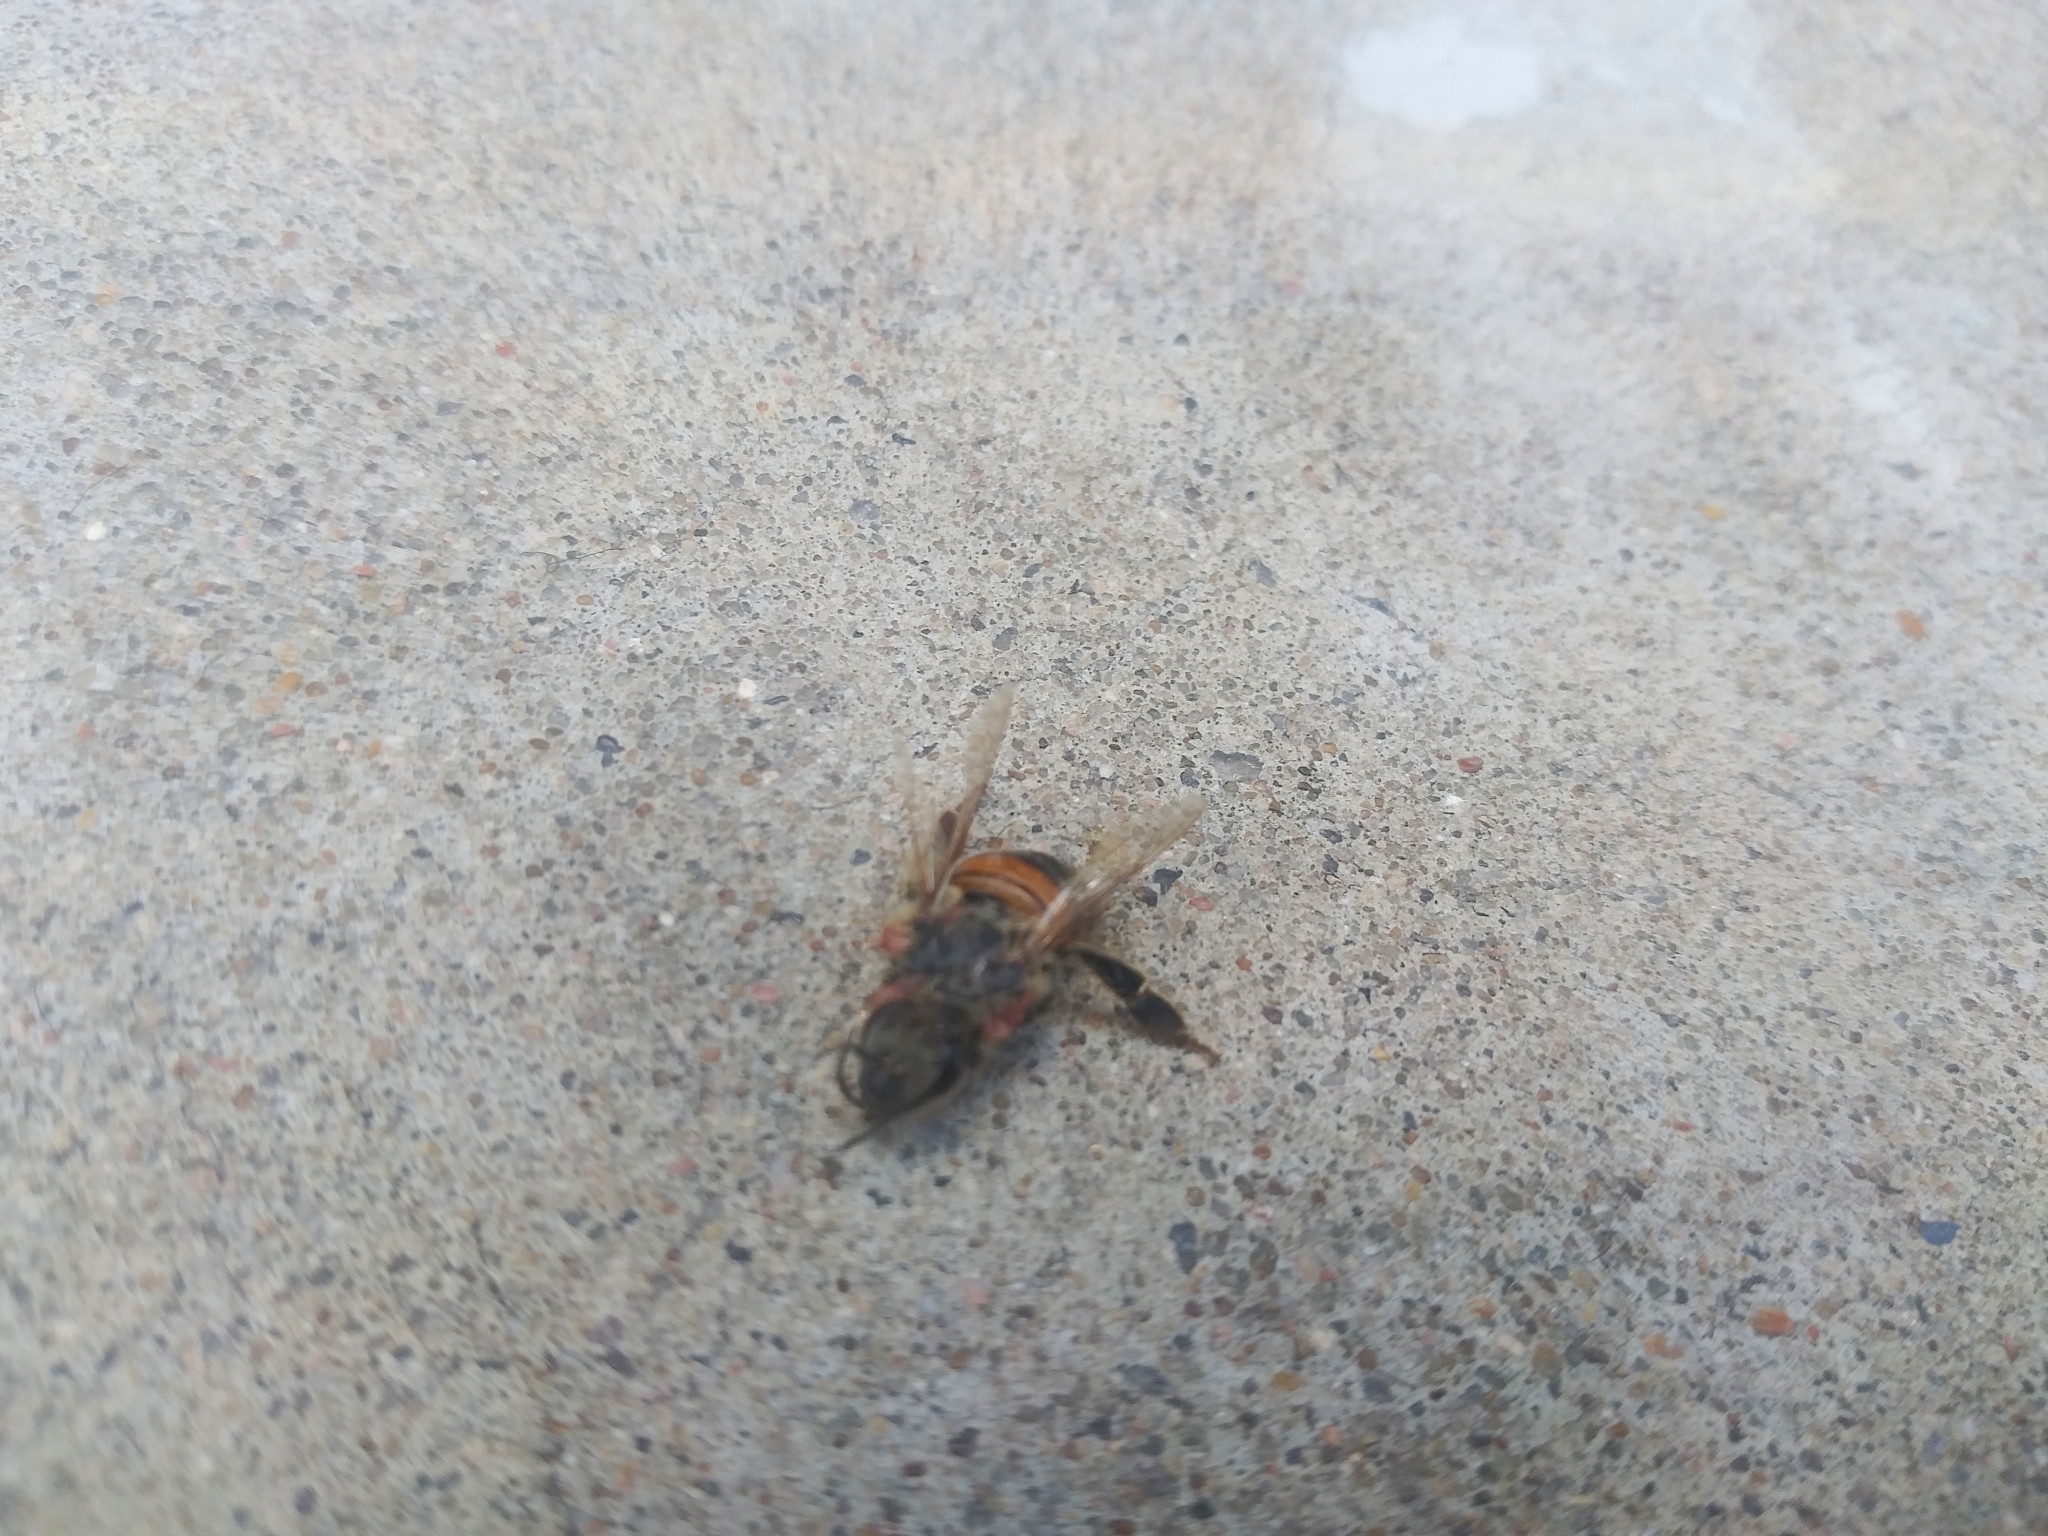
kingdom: Animalia
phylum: Arthropoda
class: Insecta
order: Hymenoptera
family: Apidae
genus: Apis
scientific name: Apis mellifera
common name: Honey bee
